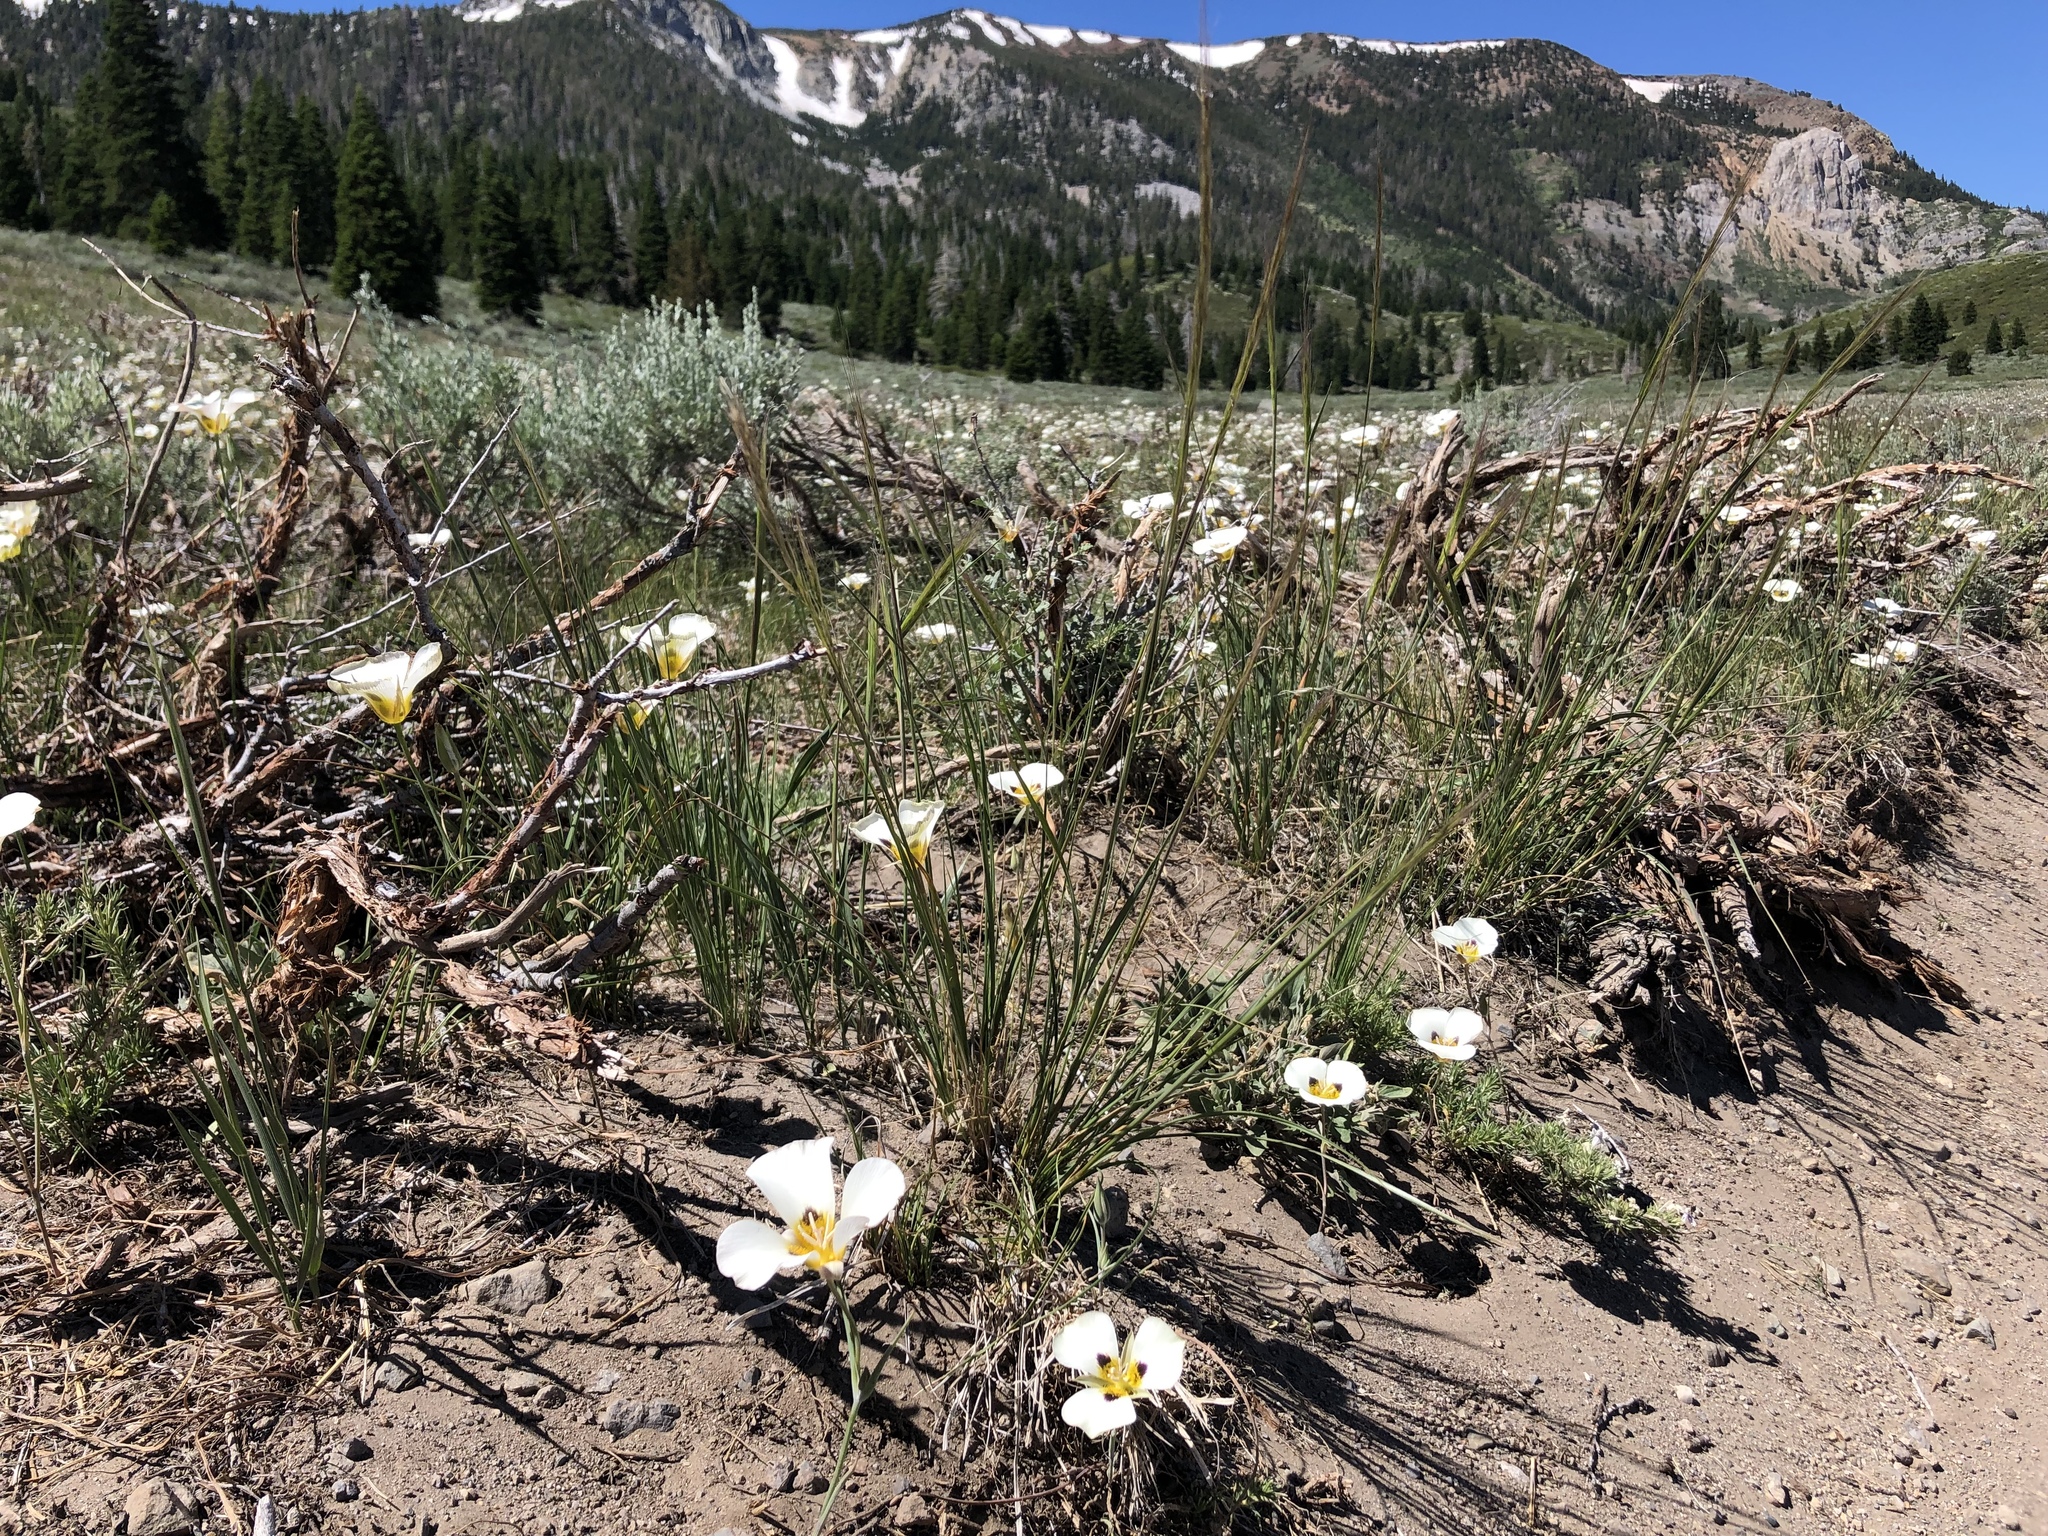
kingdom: Plantae
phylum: Tracheophyta
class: Liliopsida
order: Liliales
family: Liliaceae
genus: Calochortus
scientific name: Calochortus leichtlinii
